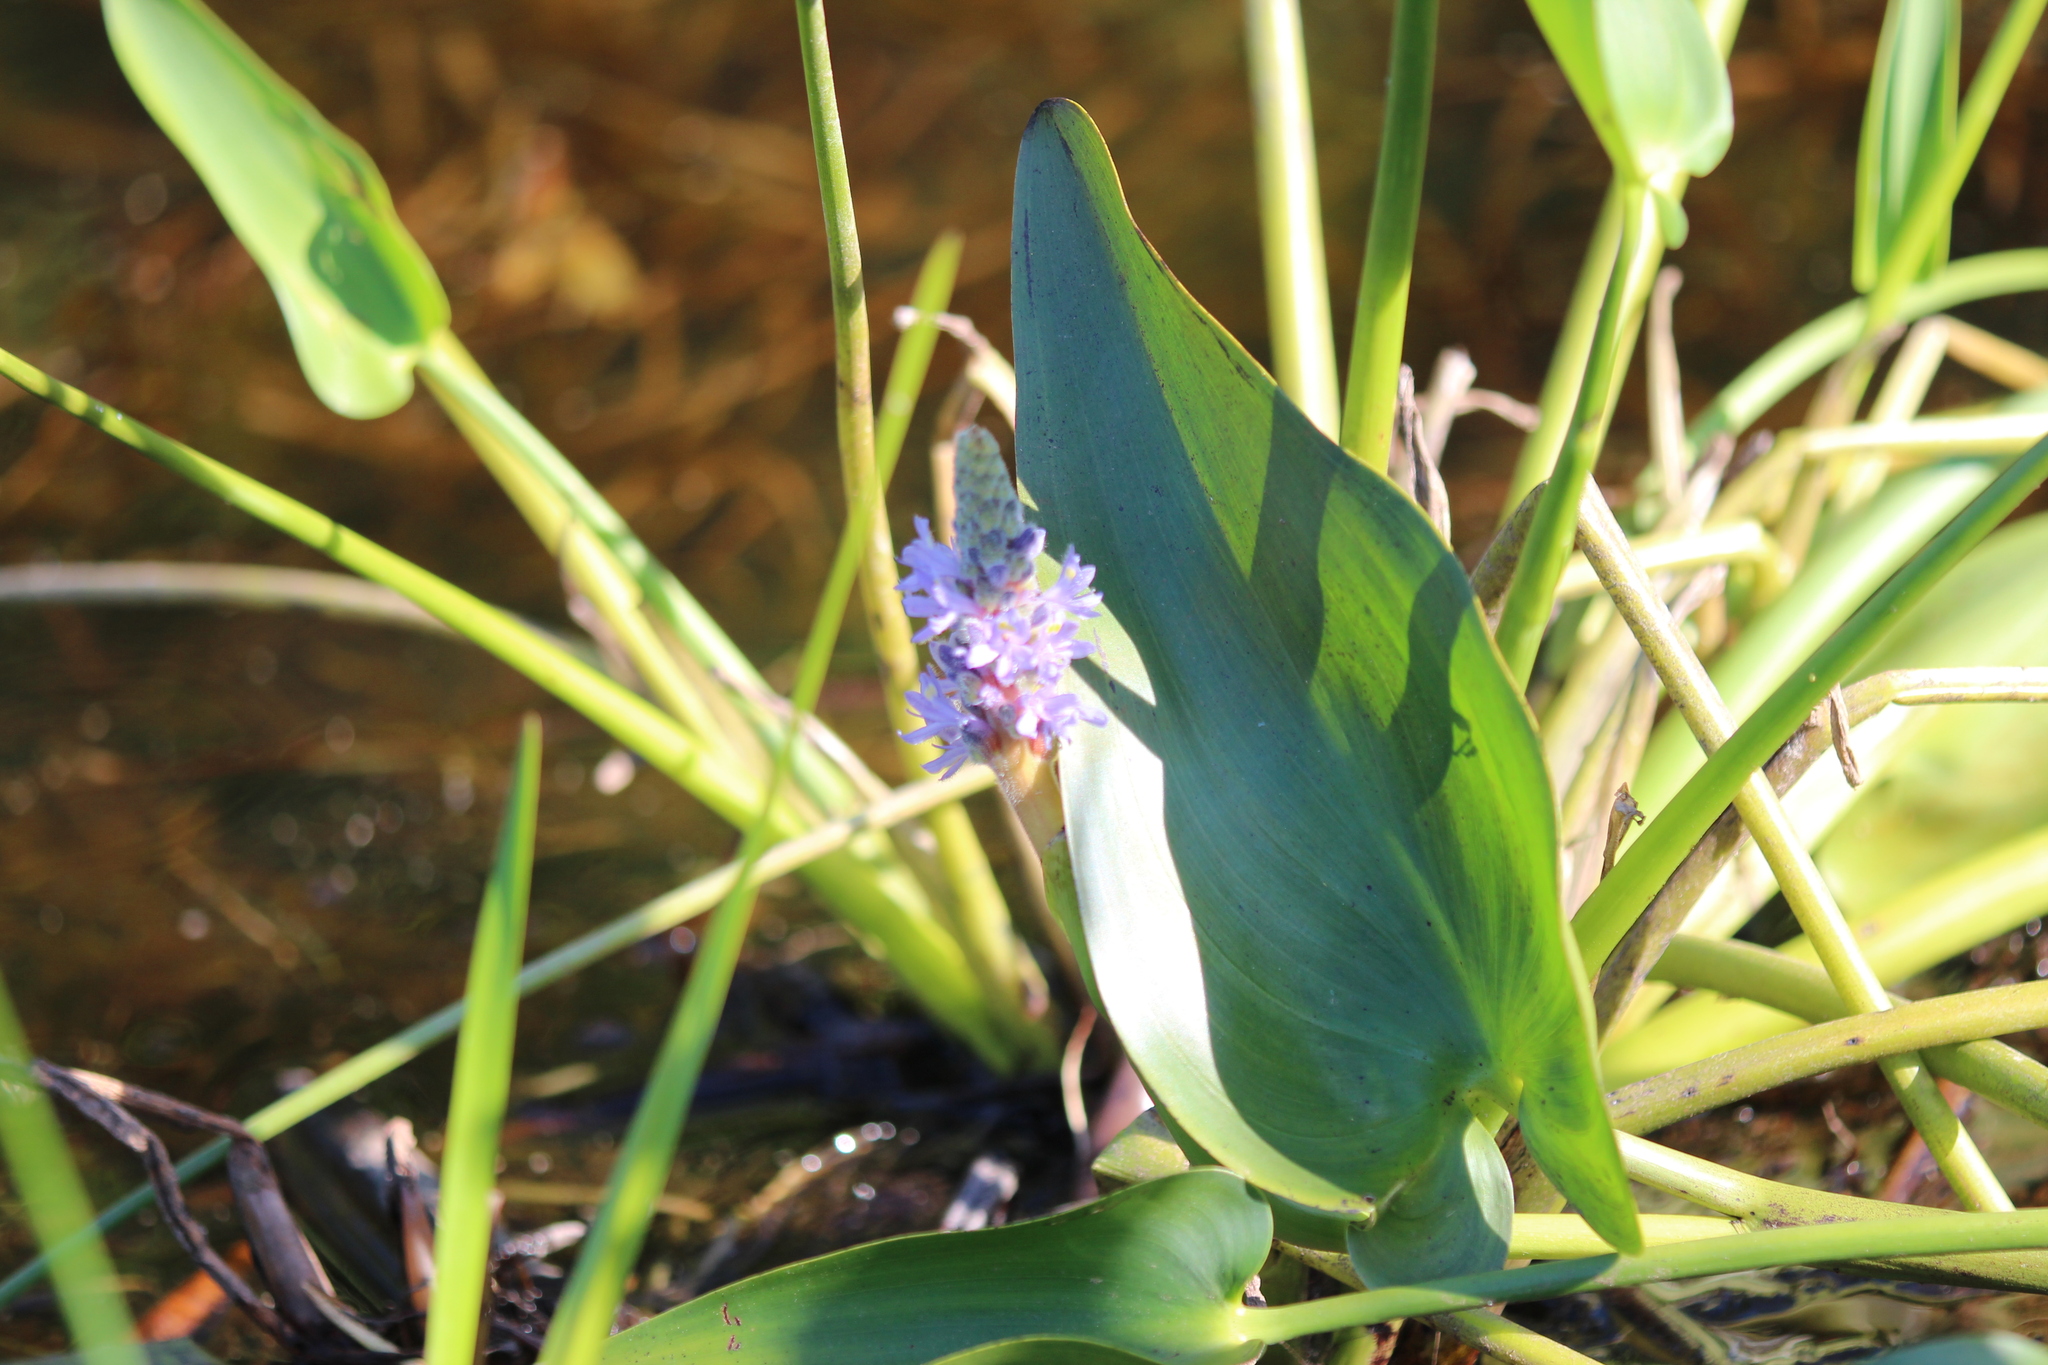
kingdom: Plantae
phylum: Tracheophyta
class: Liliopsida
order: Commelinales
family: Pontederiaceae
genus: Pontederia
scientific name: Pontederia cordata
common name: Pickerelweed
